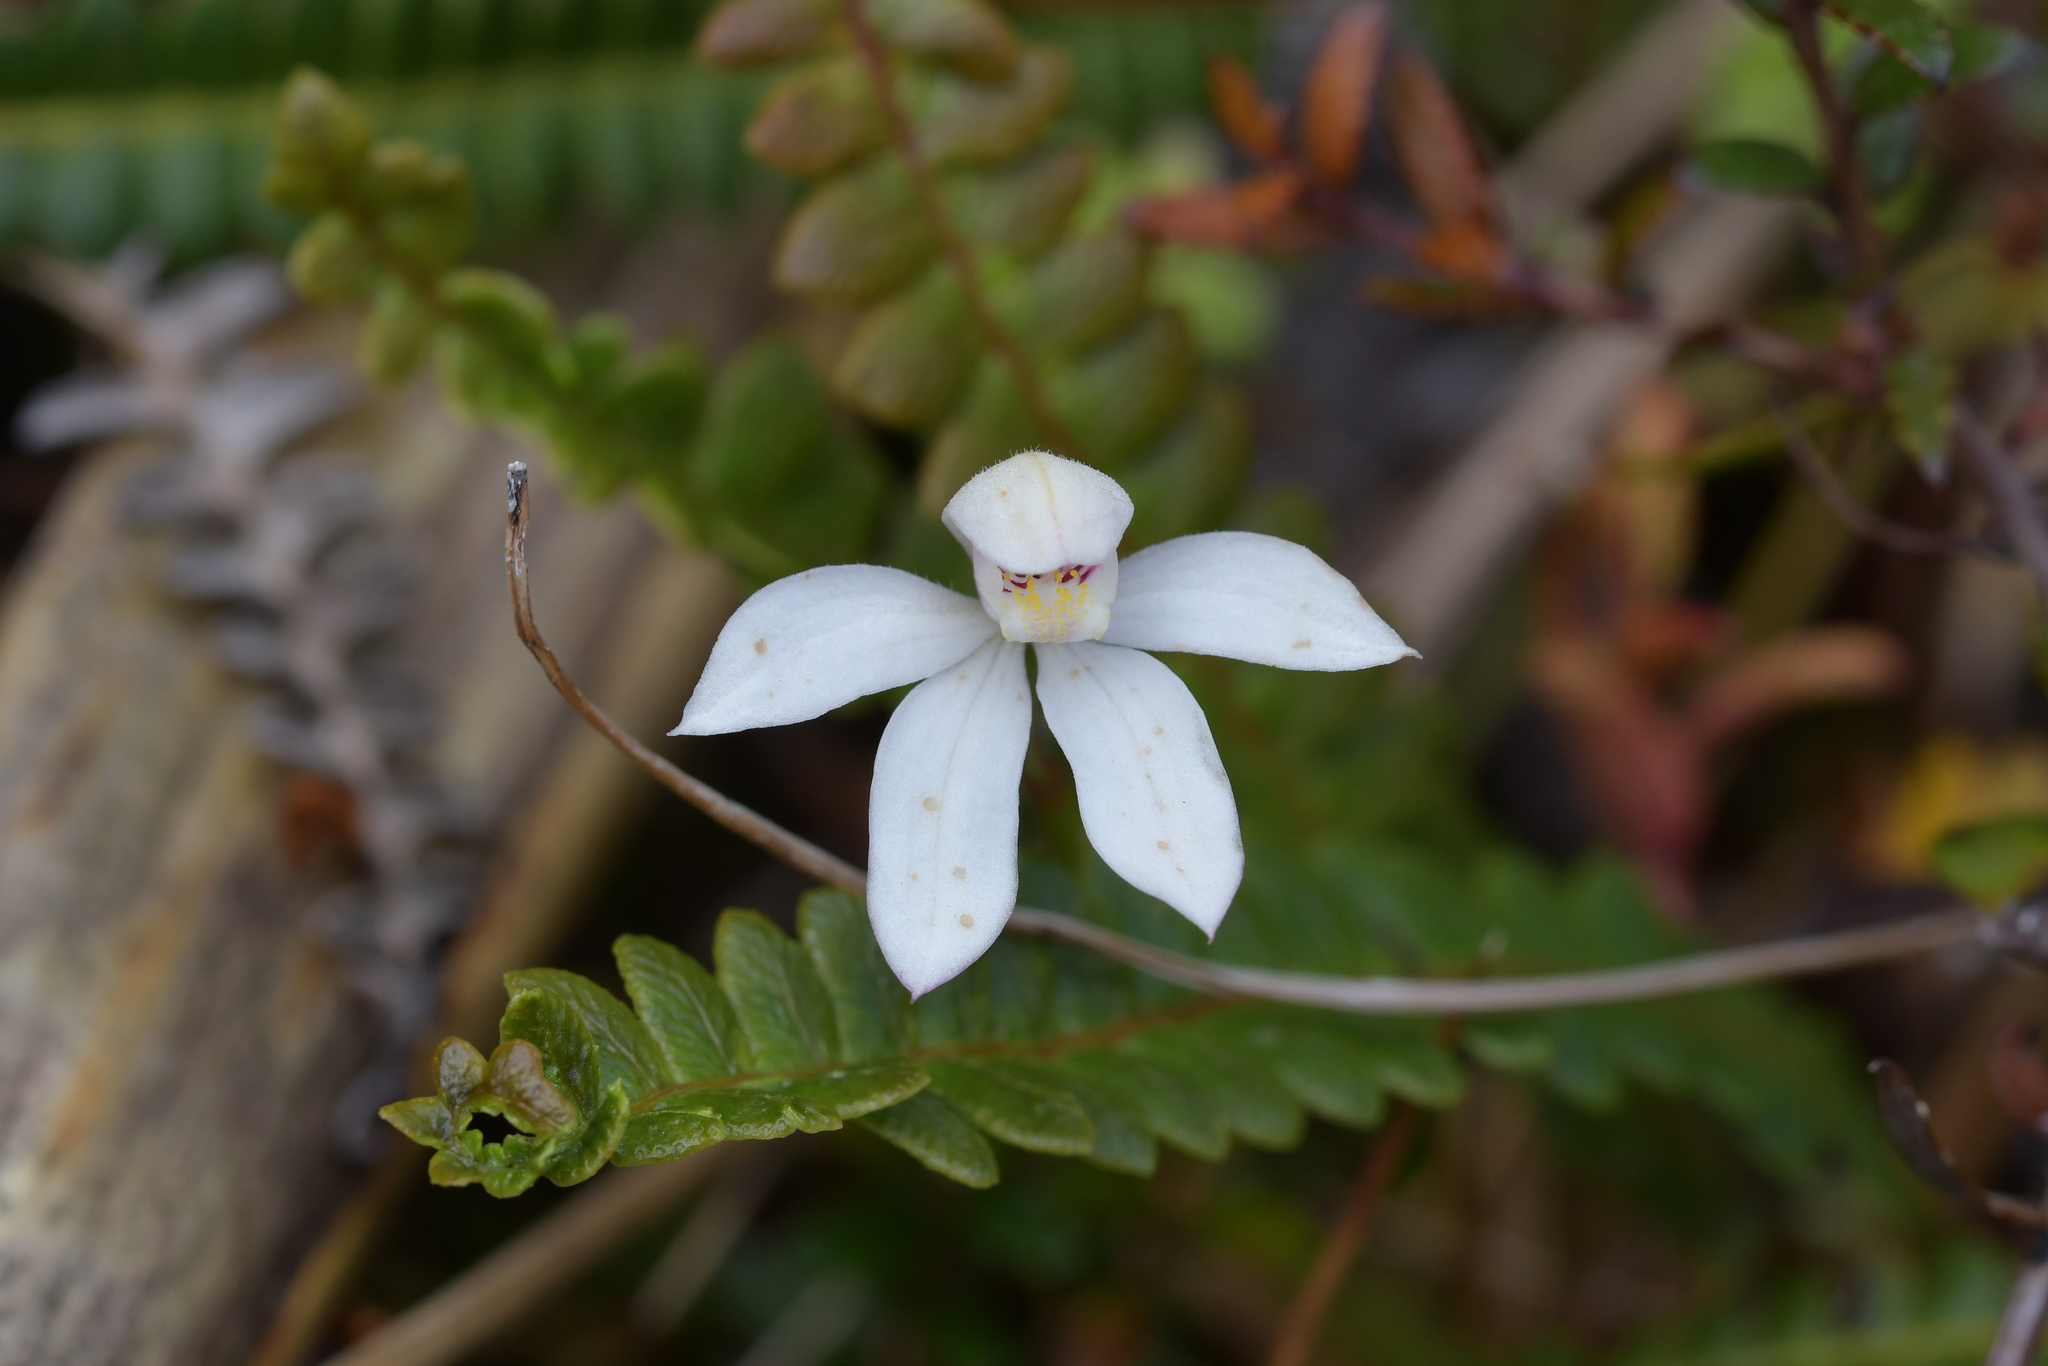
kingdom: Plantae
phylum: Tracheophyta
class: Liliopsida
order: Asparagales
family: Orchidaceae
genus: Caladenia
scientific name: Caladenia lyallii
